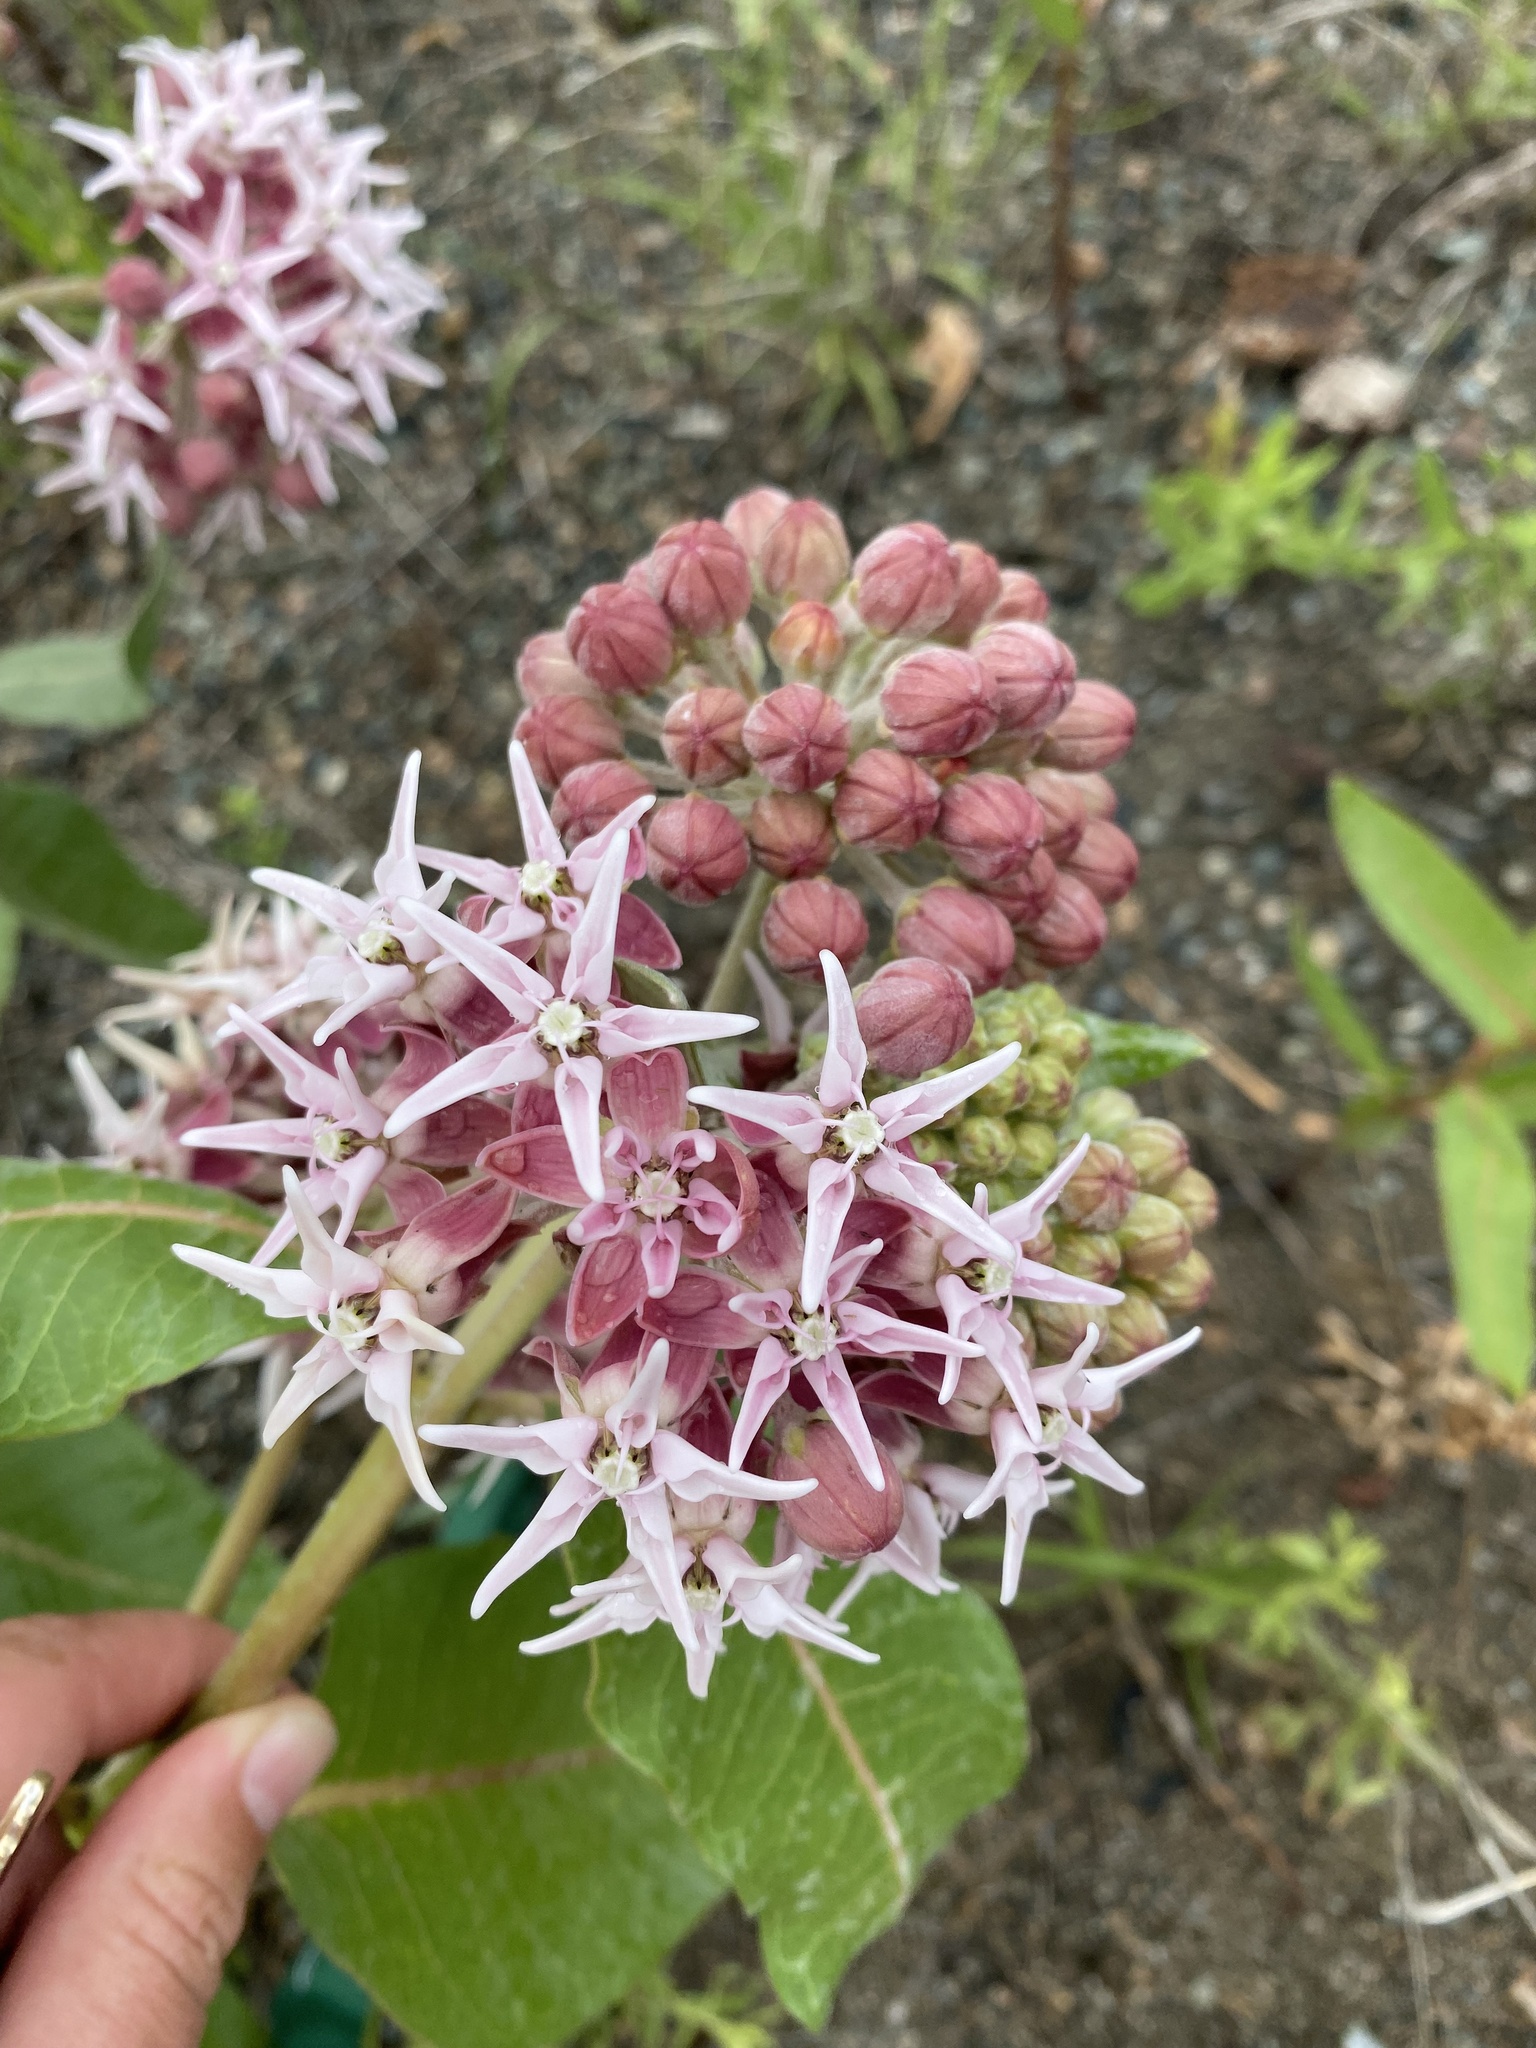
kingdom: Plantae
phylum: Tracheophyta
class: Magnoliopsida
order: Gentianales
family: Apocynaceae
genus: Asclepias
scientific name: Asclepias speciosa
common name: Showy milkweed
